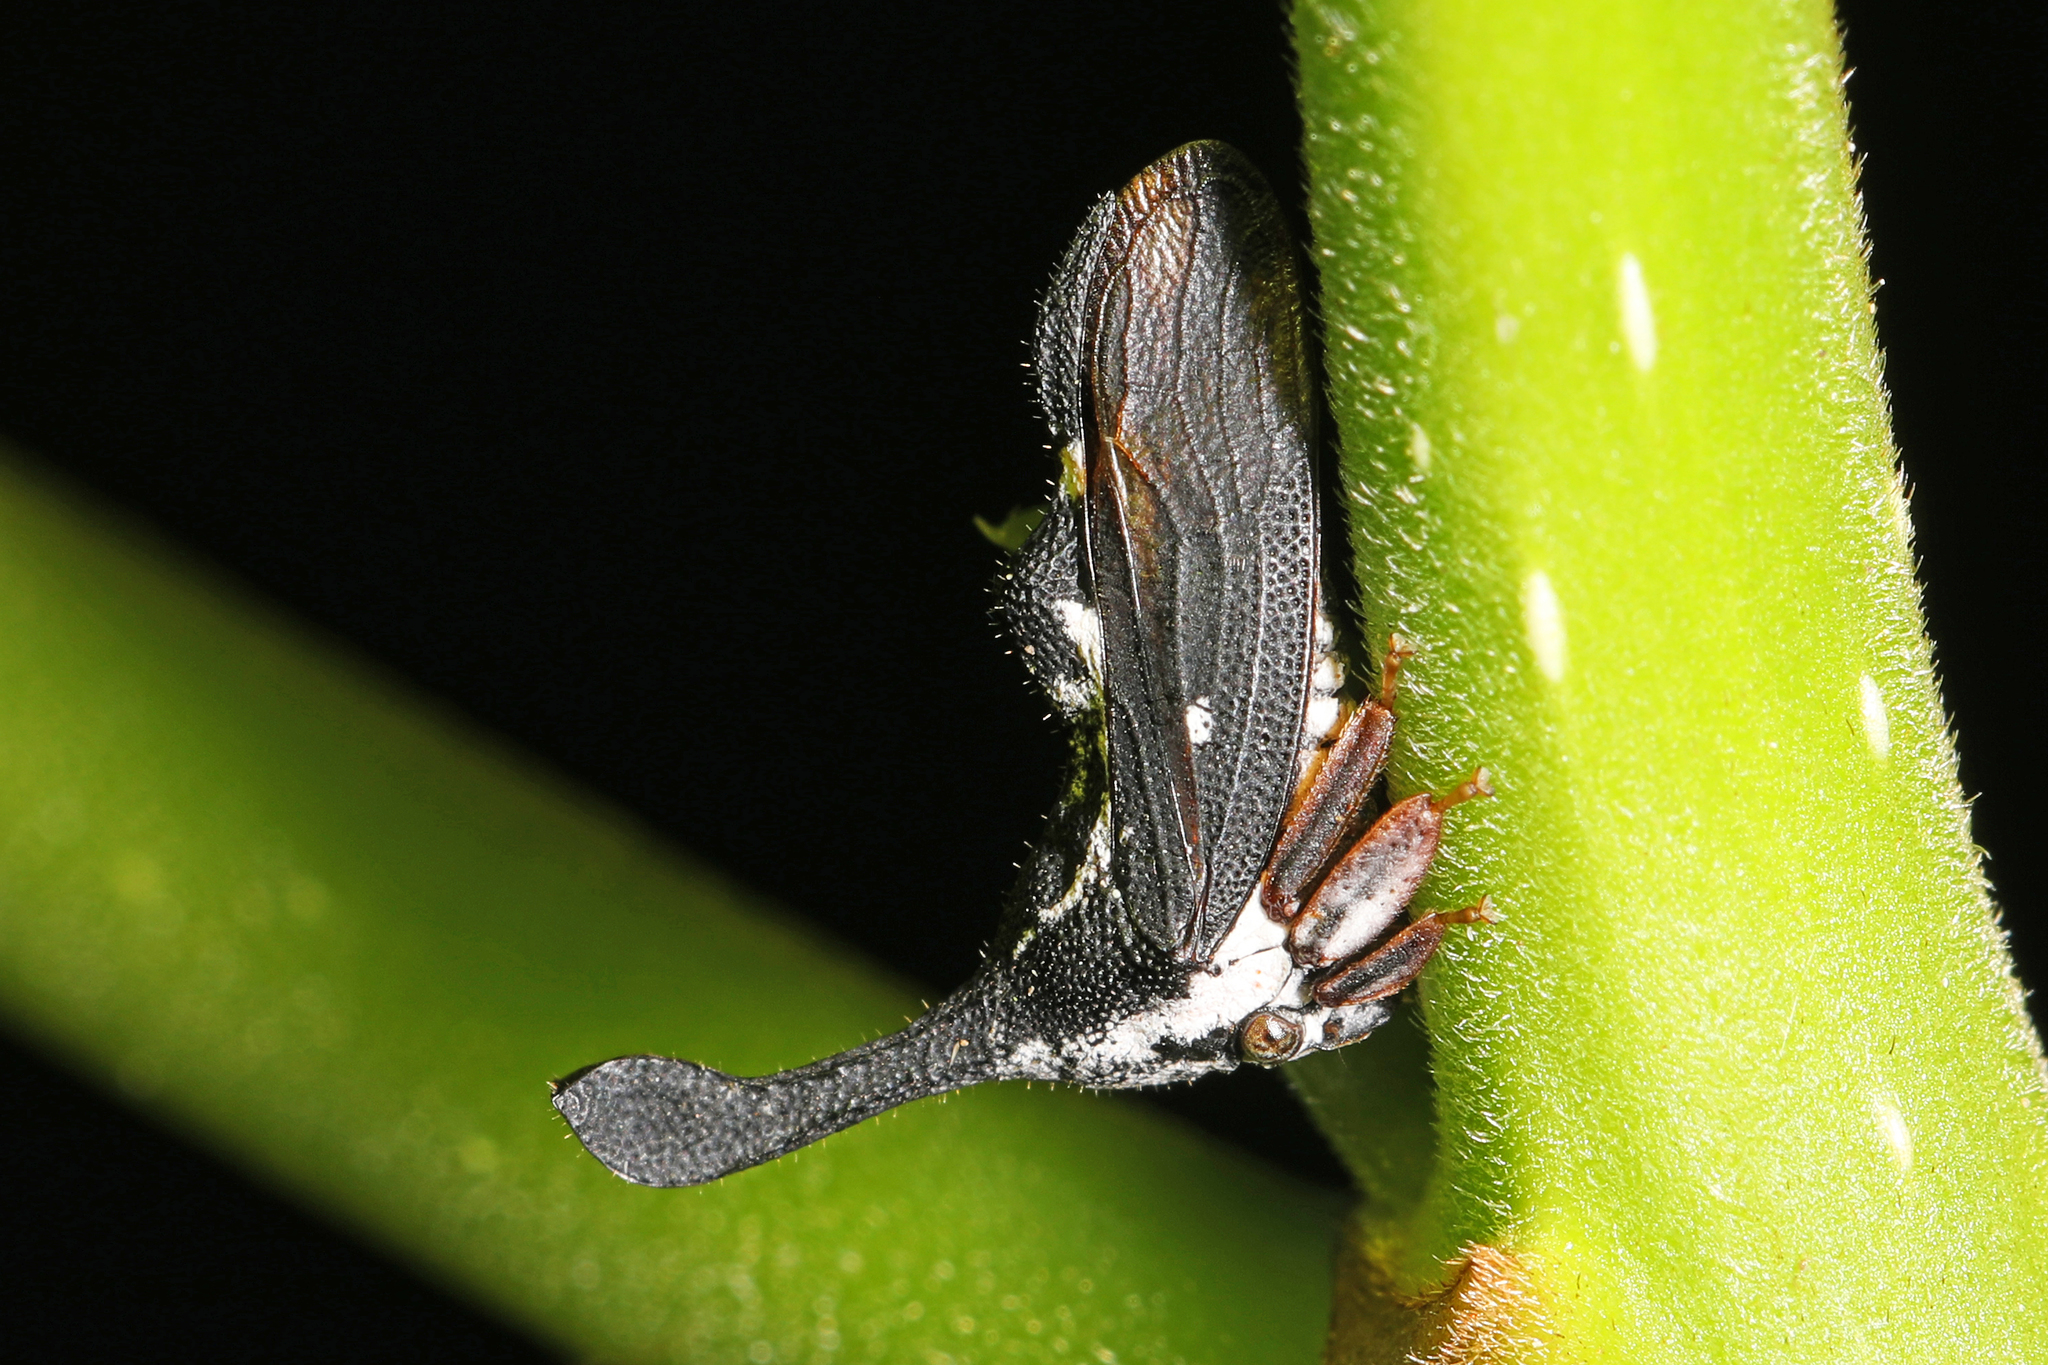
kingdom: Animalia
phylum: Arthropoda
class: Insecta
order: Hemiptera
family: Membracidae
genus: Cladonota
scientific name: Cladonota machinula
